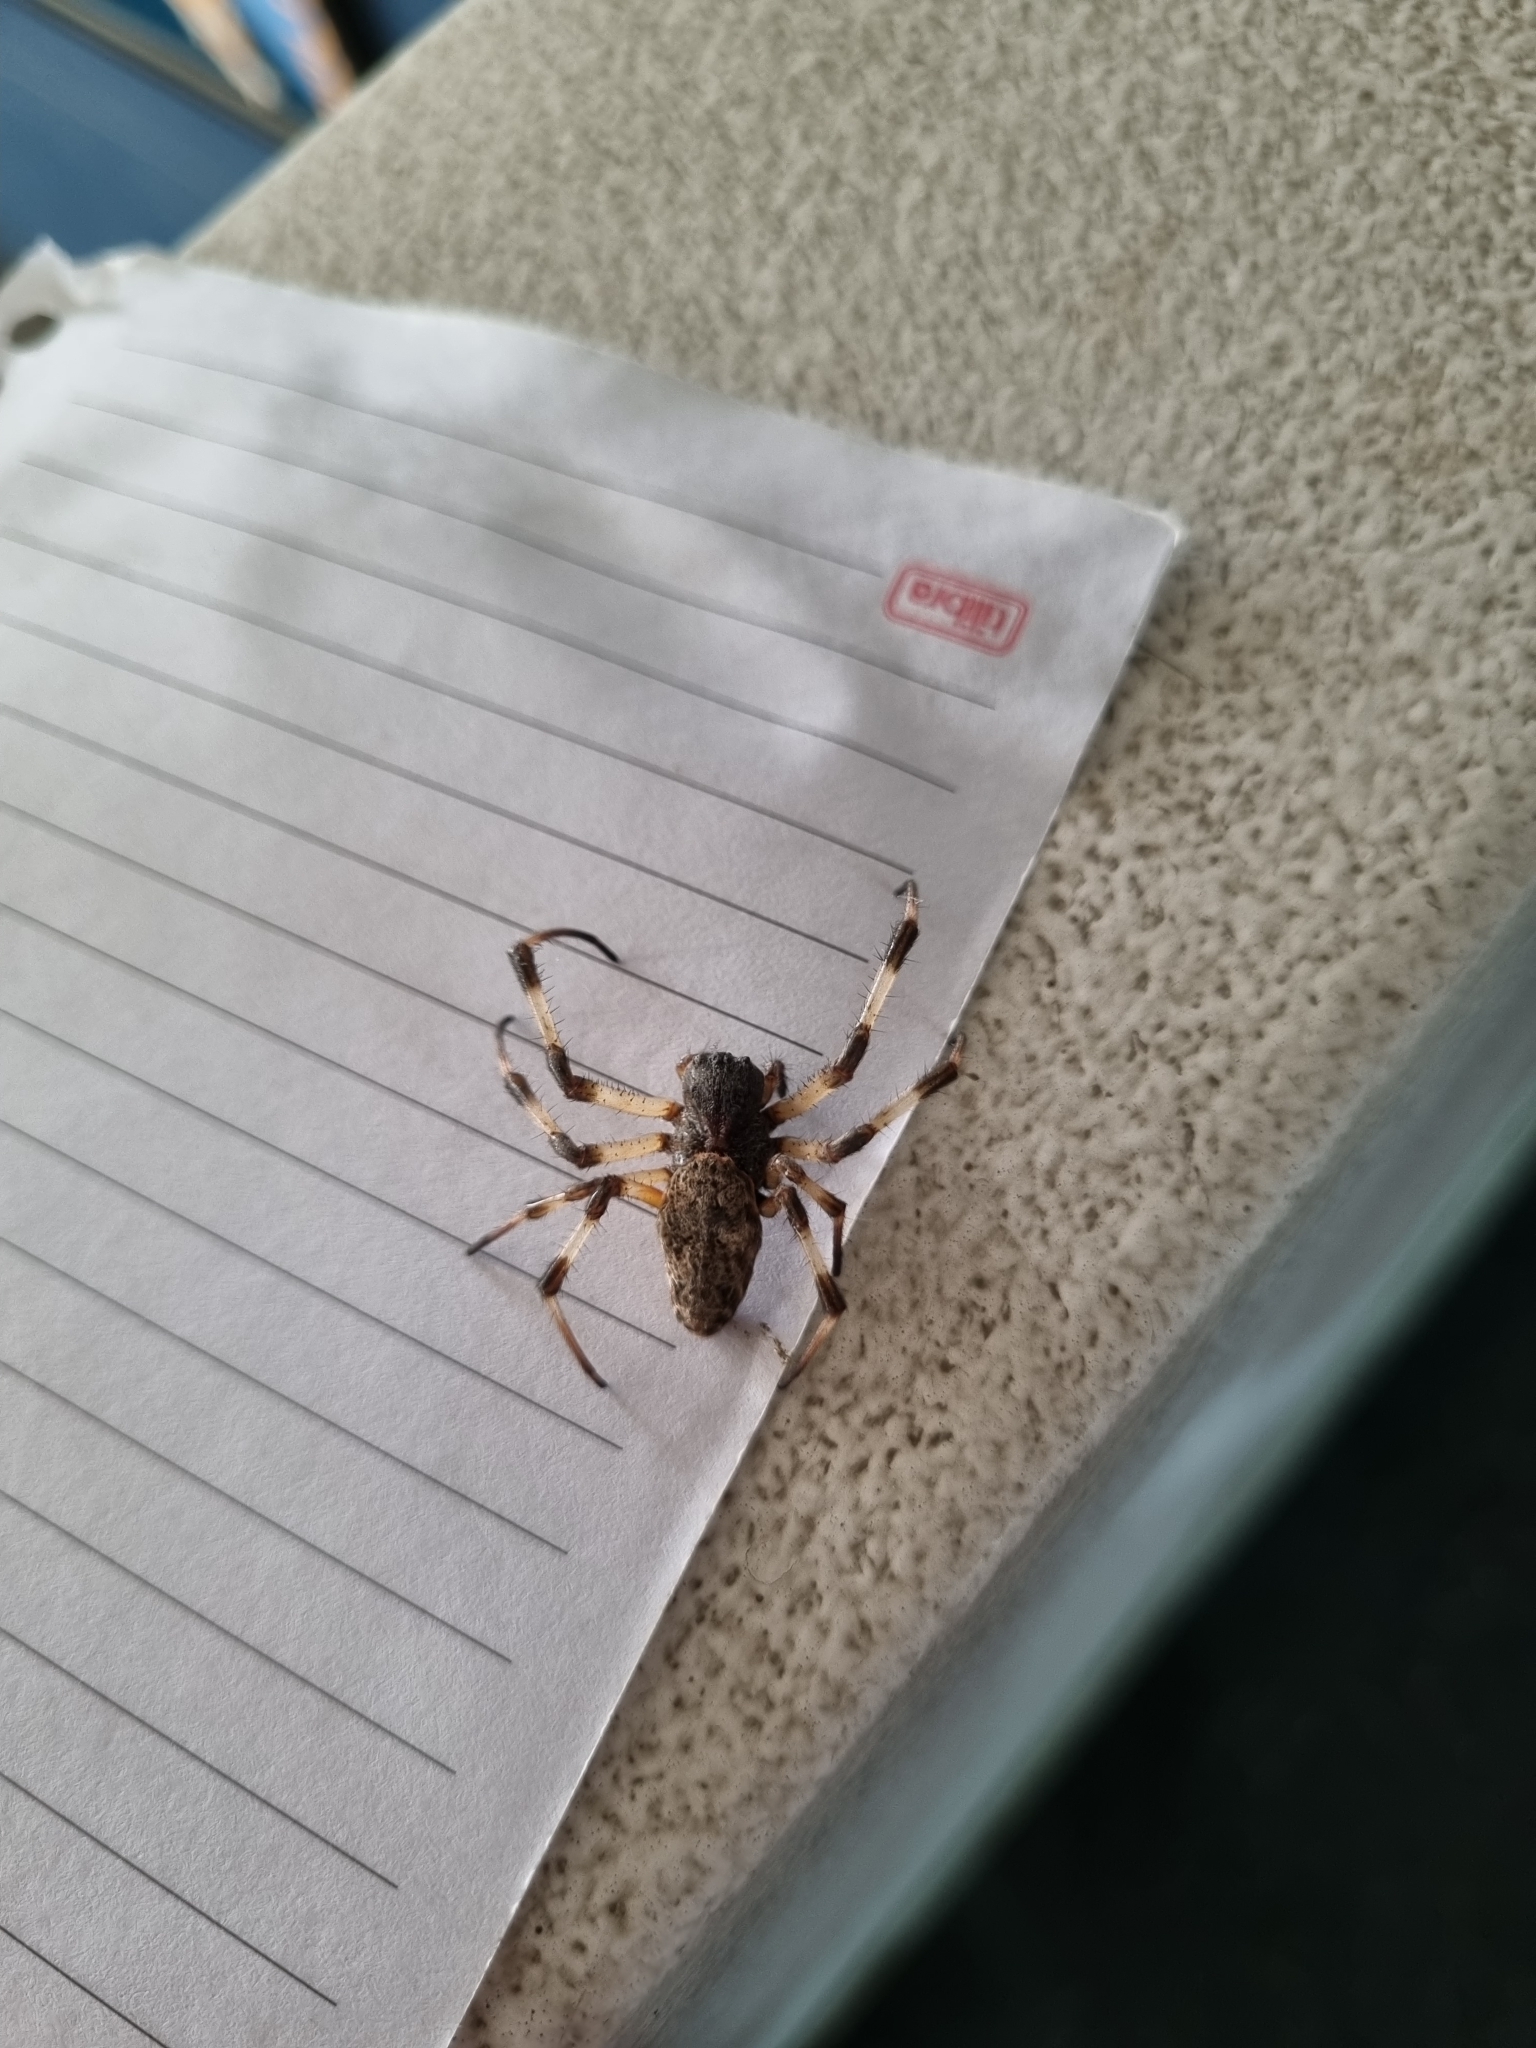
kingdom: Animalia
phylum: Arthropoda
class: Arachnida
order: Araneae
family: Araneidae
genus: Nephilingis
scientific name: Nephilingis cruentata
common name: African hermit spider
